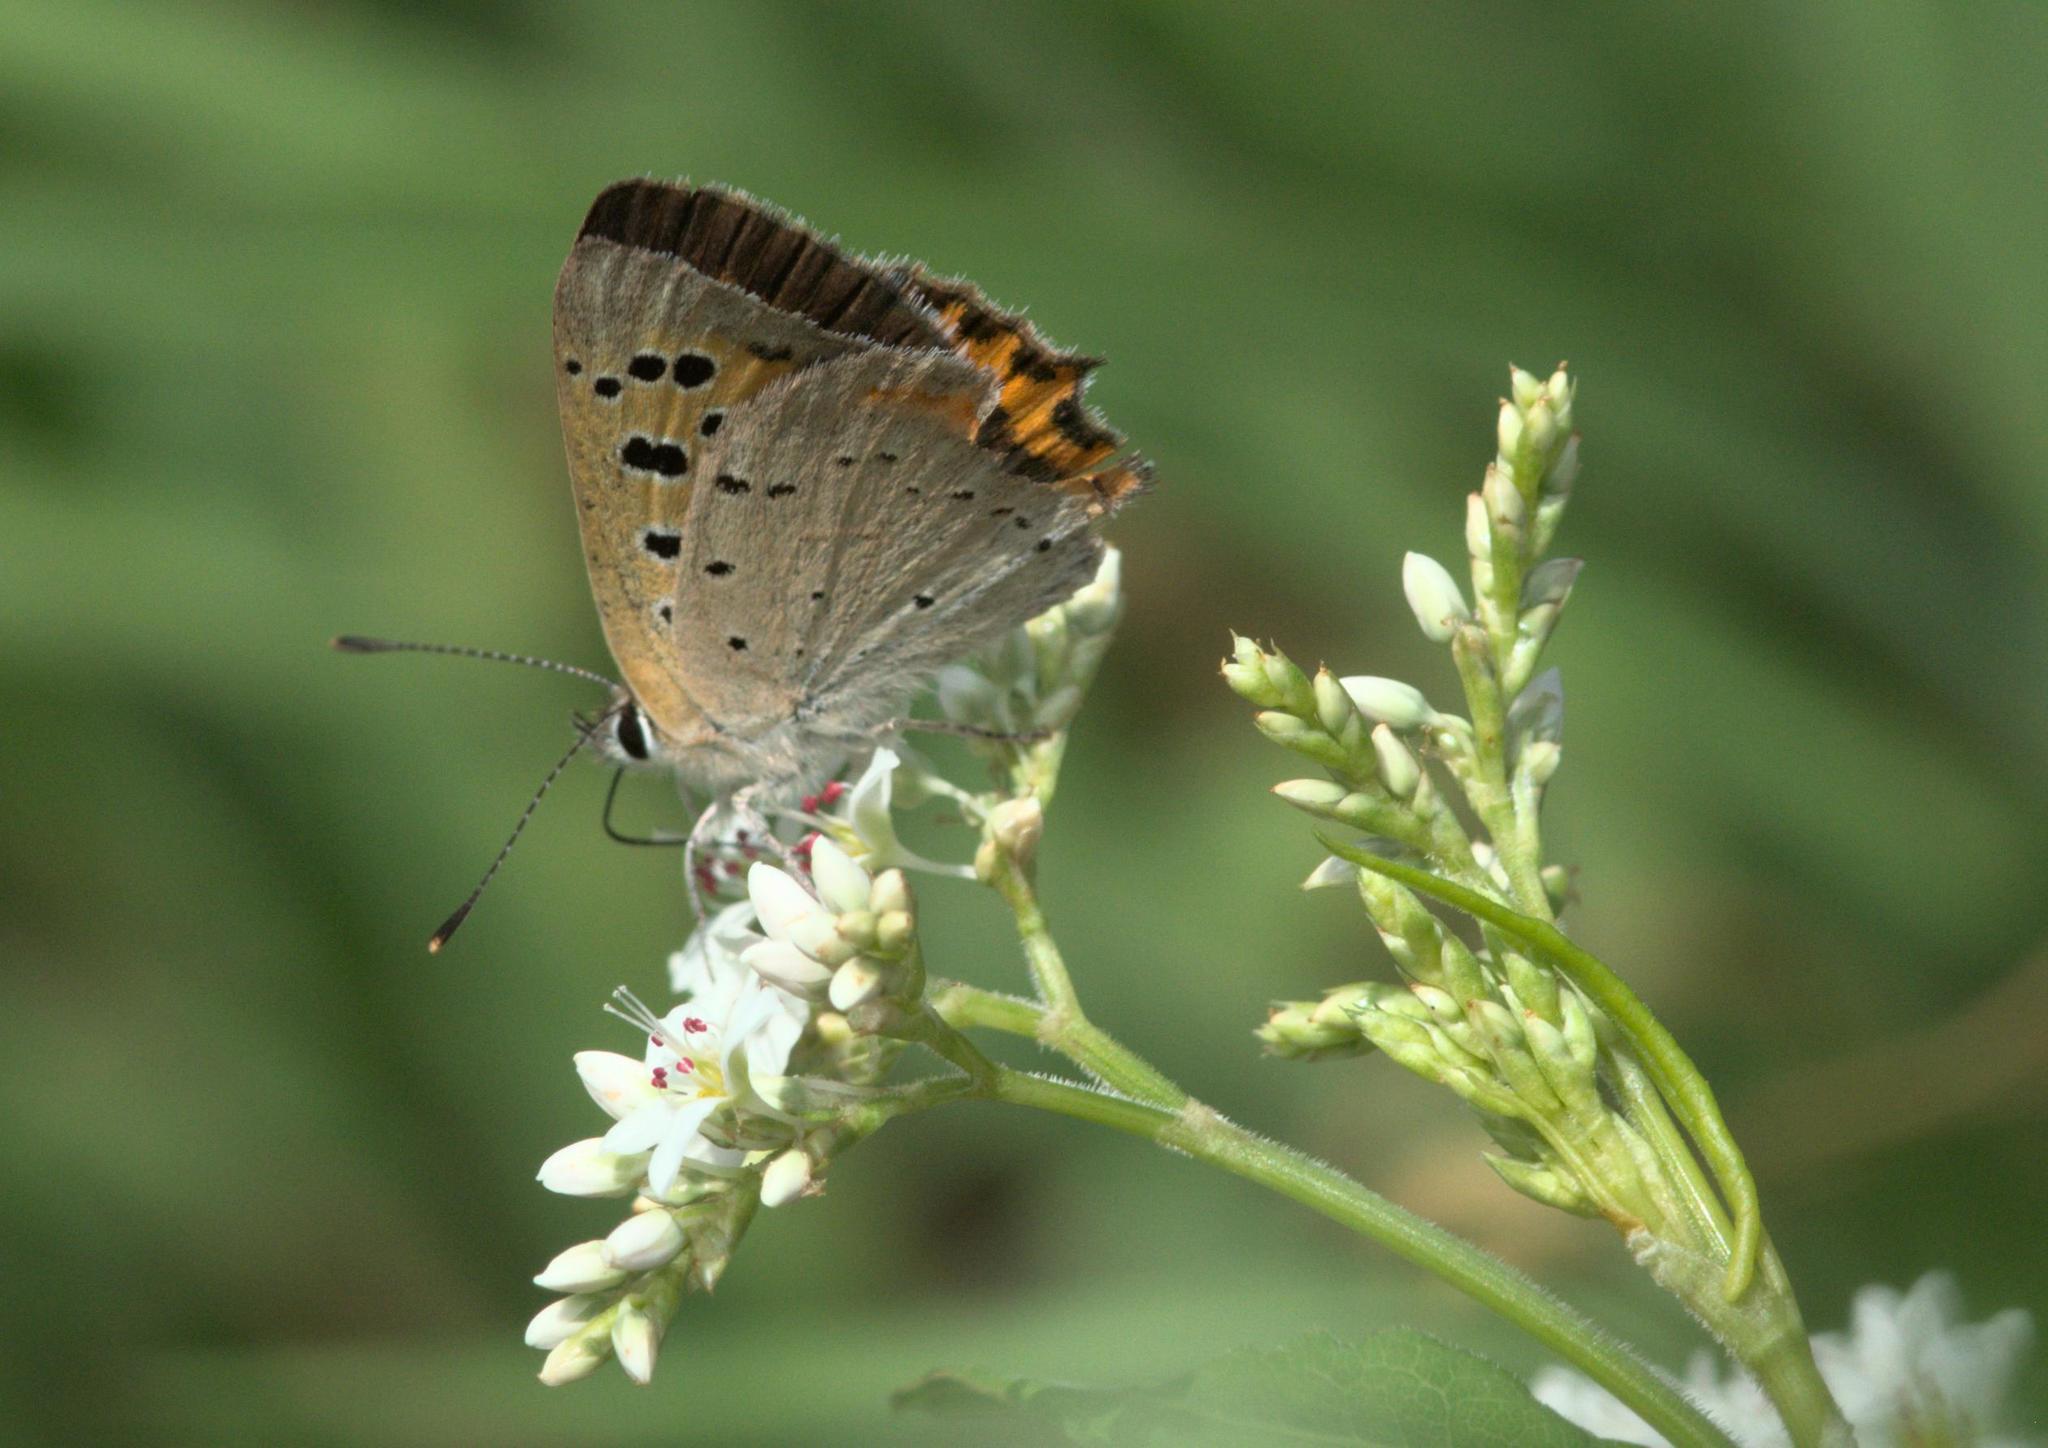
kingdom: Animalia
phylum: Arthropoda
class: Insecta
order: Lepidoptera
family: Lycaenidae
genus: Lycaena
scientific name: Lycaena phlaeas
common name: Small copper
